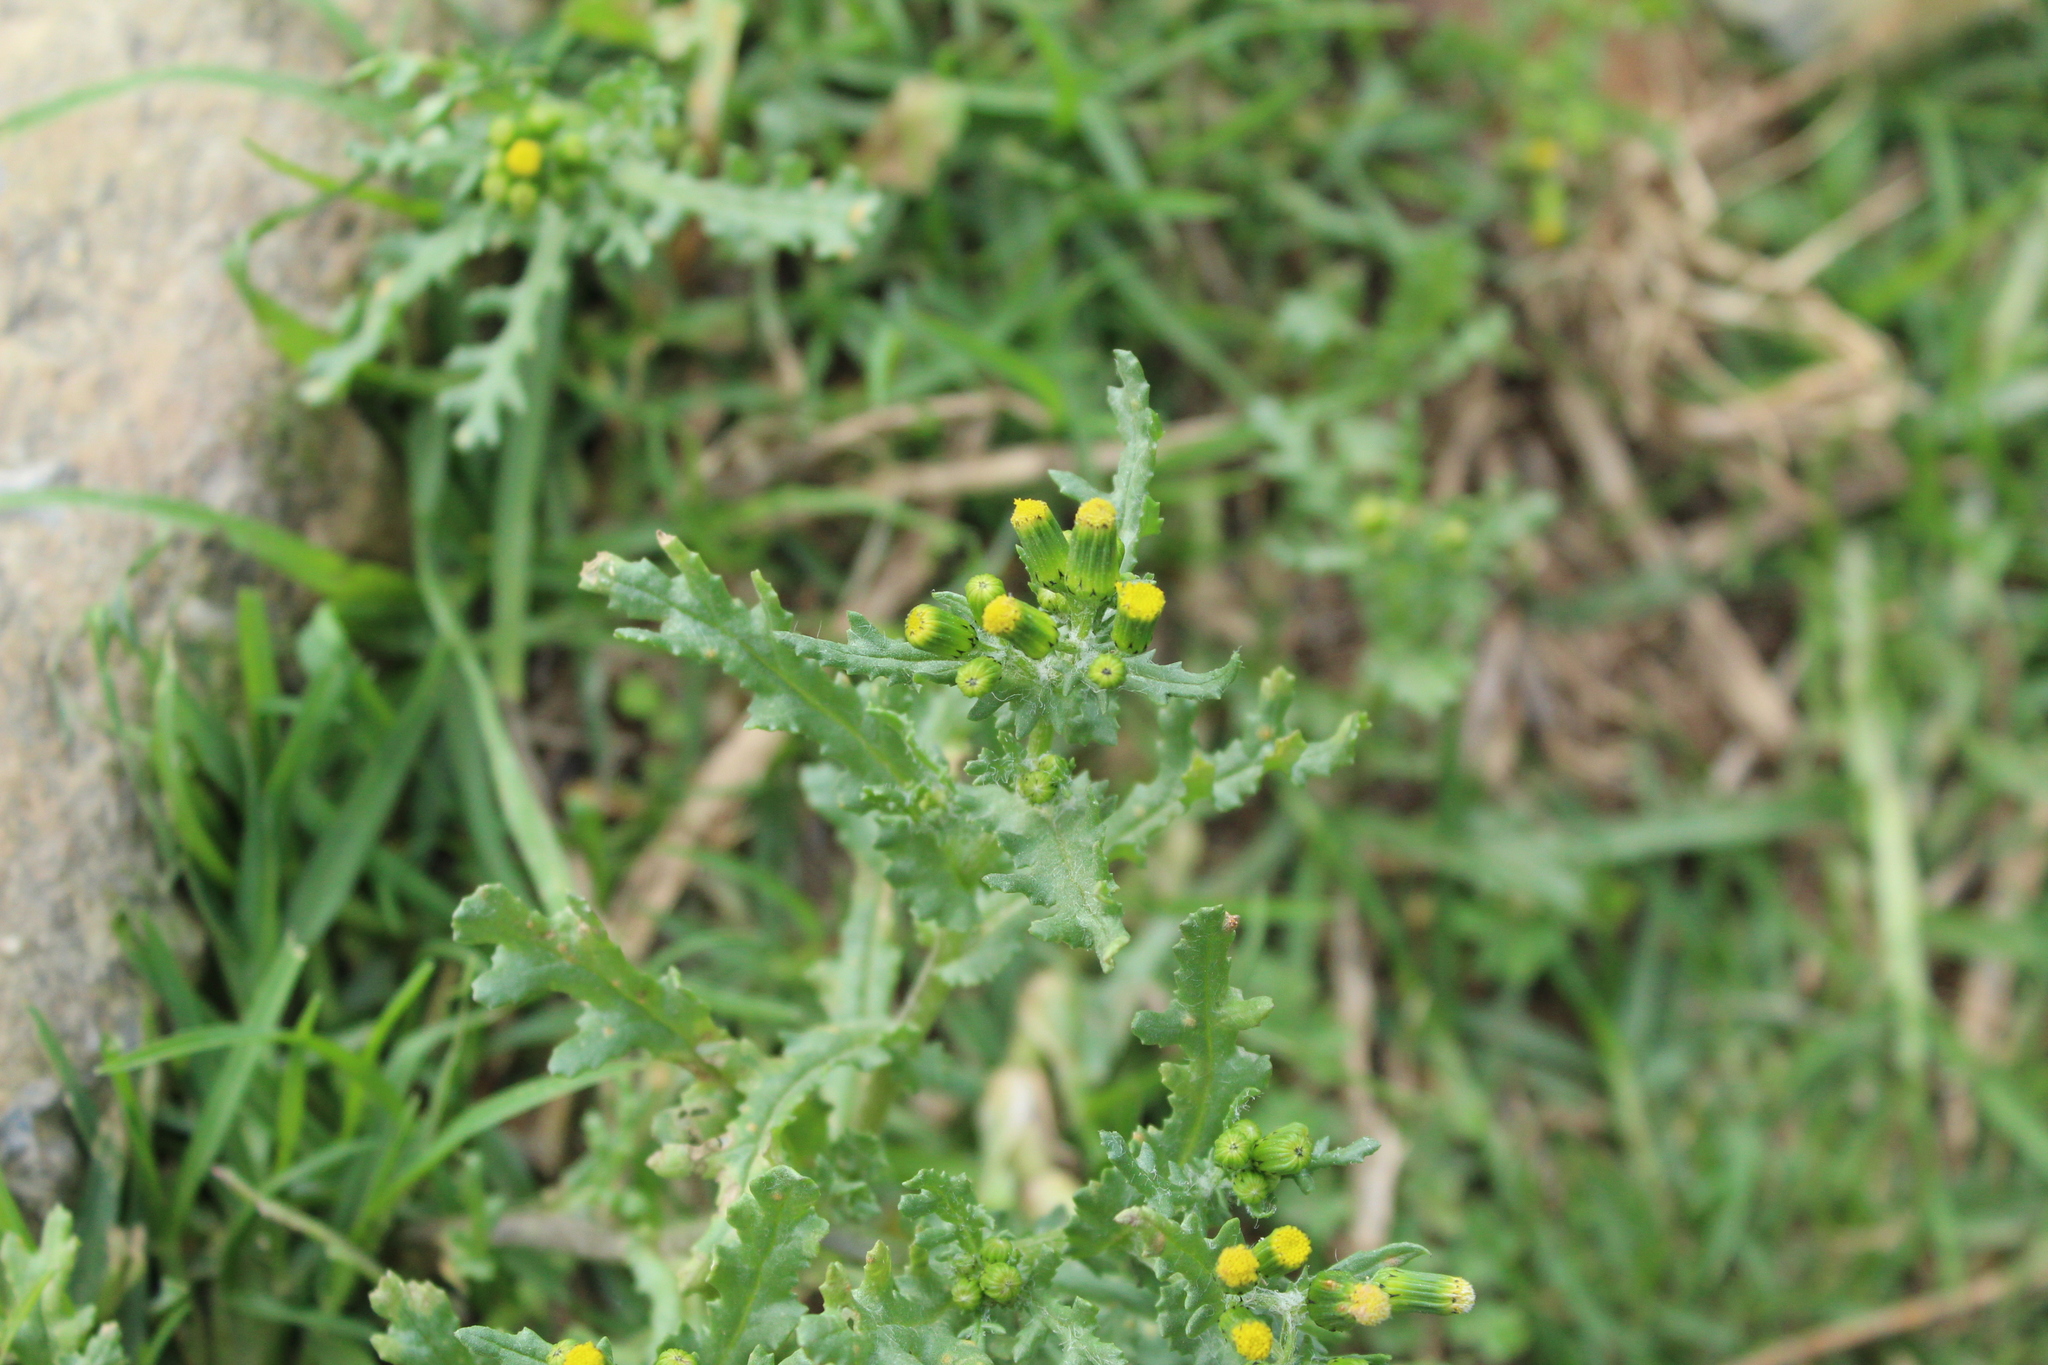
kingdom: Plantae
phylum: Tracheophyta
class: Magnoliopsida
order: Asterales
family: Asteraceae
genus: Senecio
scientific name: Senecio vulgaris
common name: Old-man-in-the-spring
